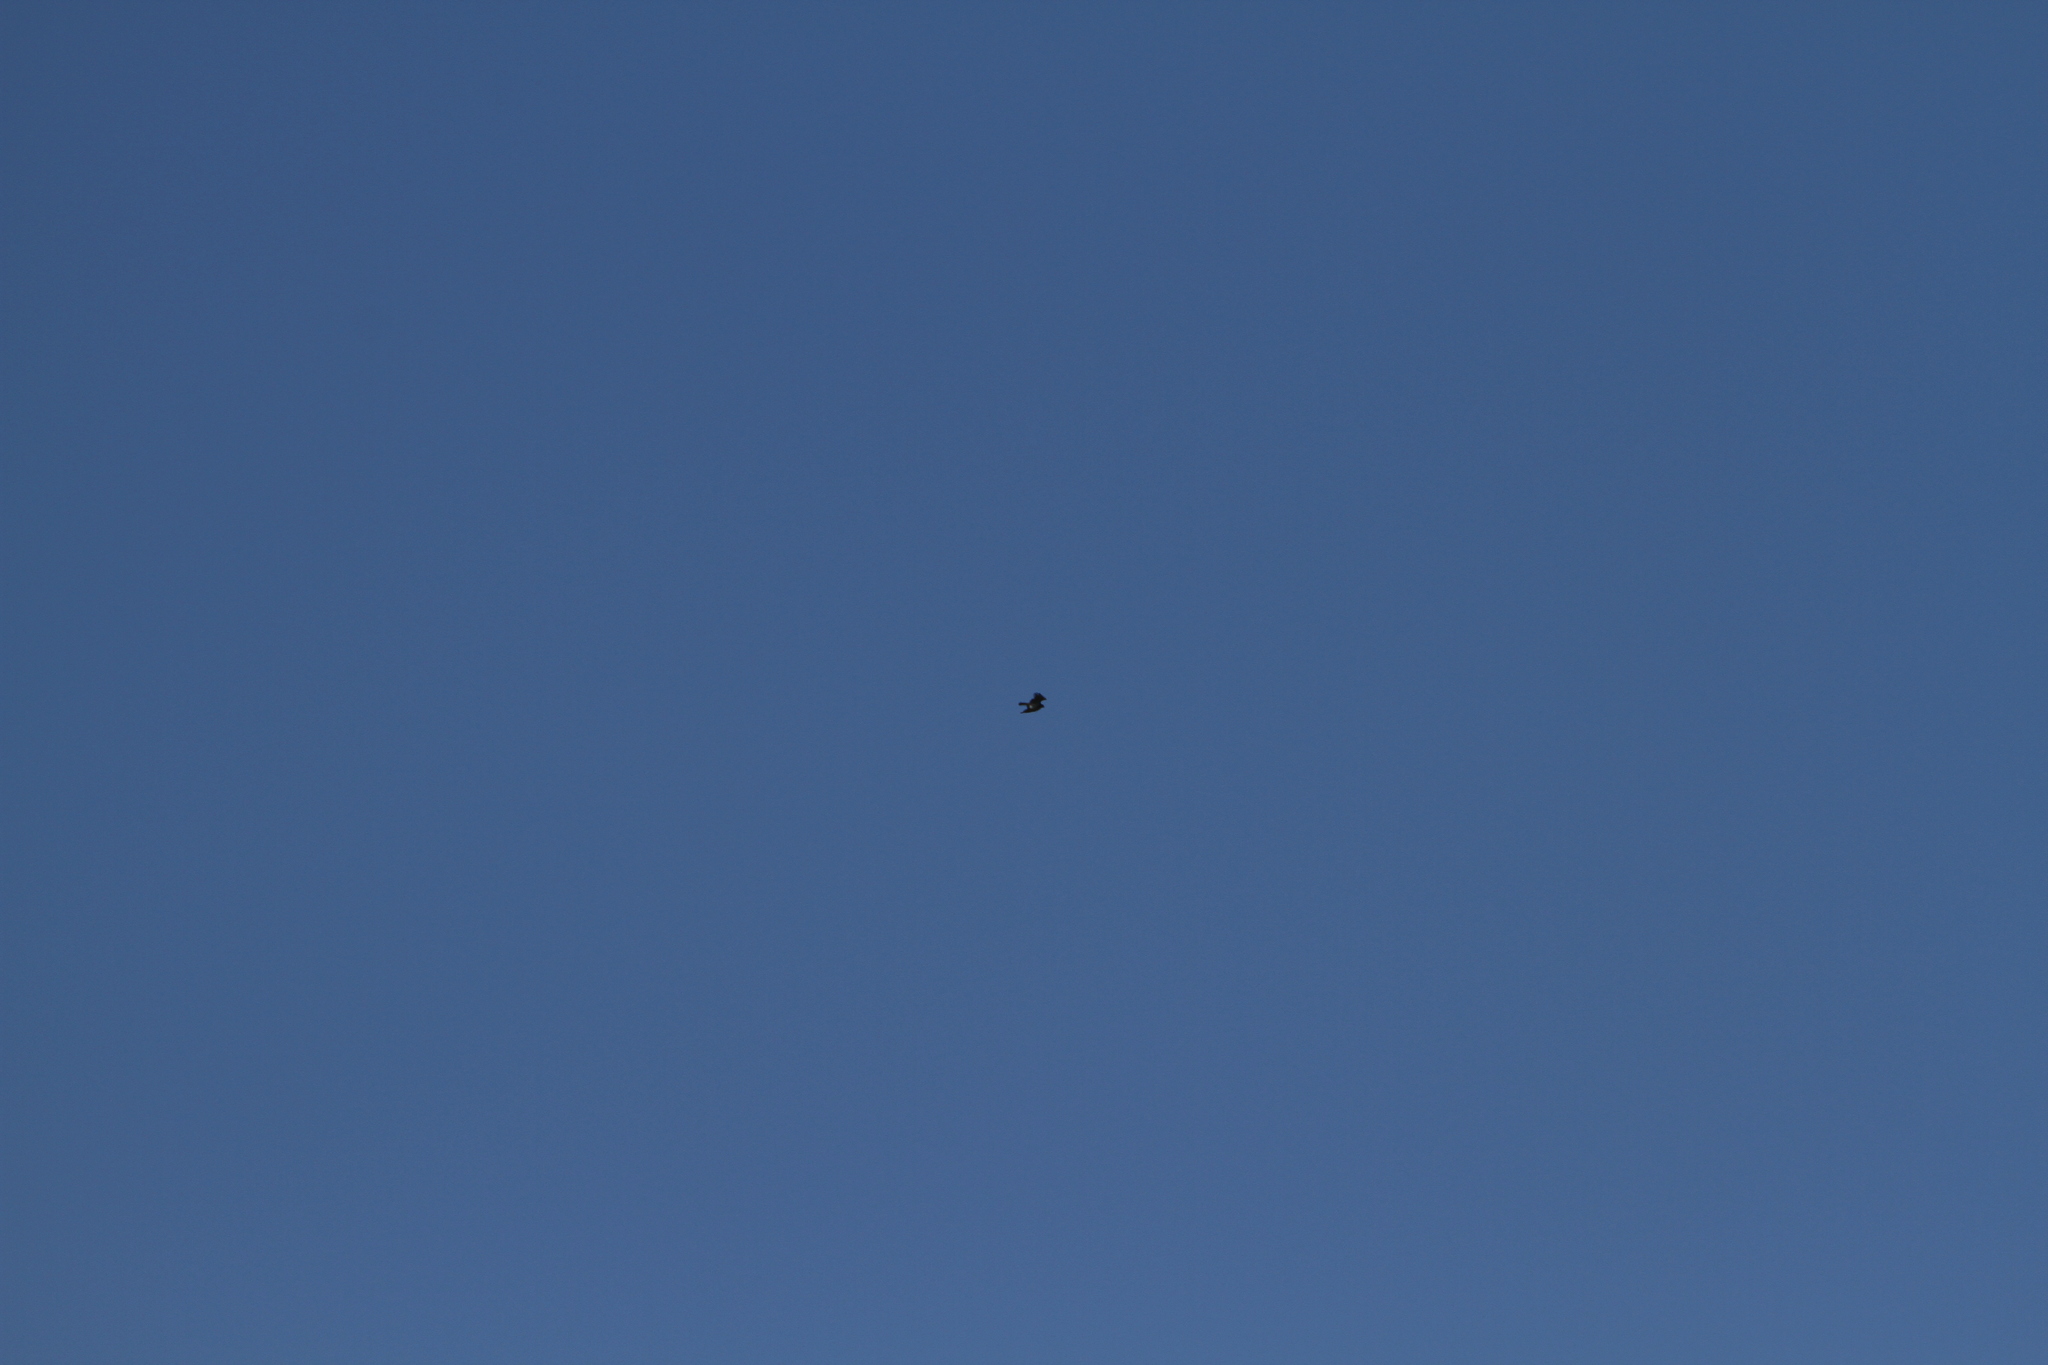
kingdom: Animalia
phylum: Chordata
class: Aves
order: Accipitriformes
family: Accipitridae
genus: Circaetus
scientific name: Circaetus gallicus
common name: Short-toed snake eagle
